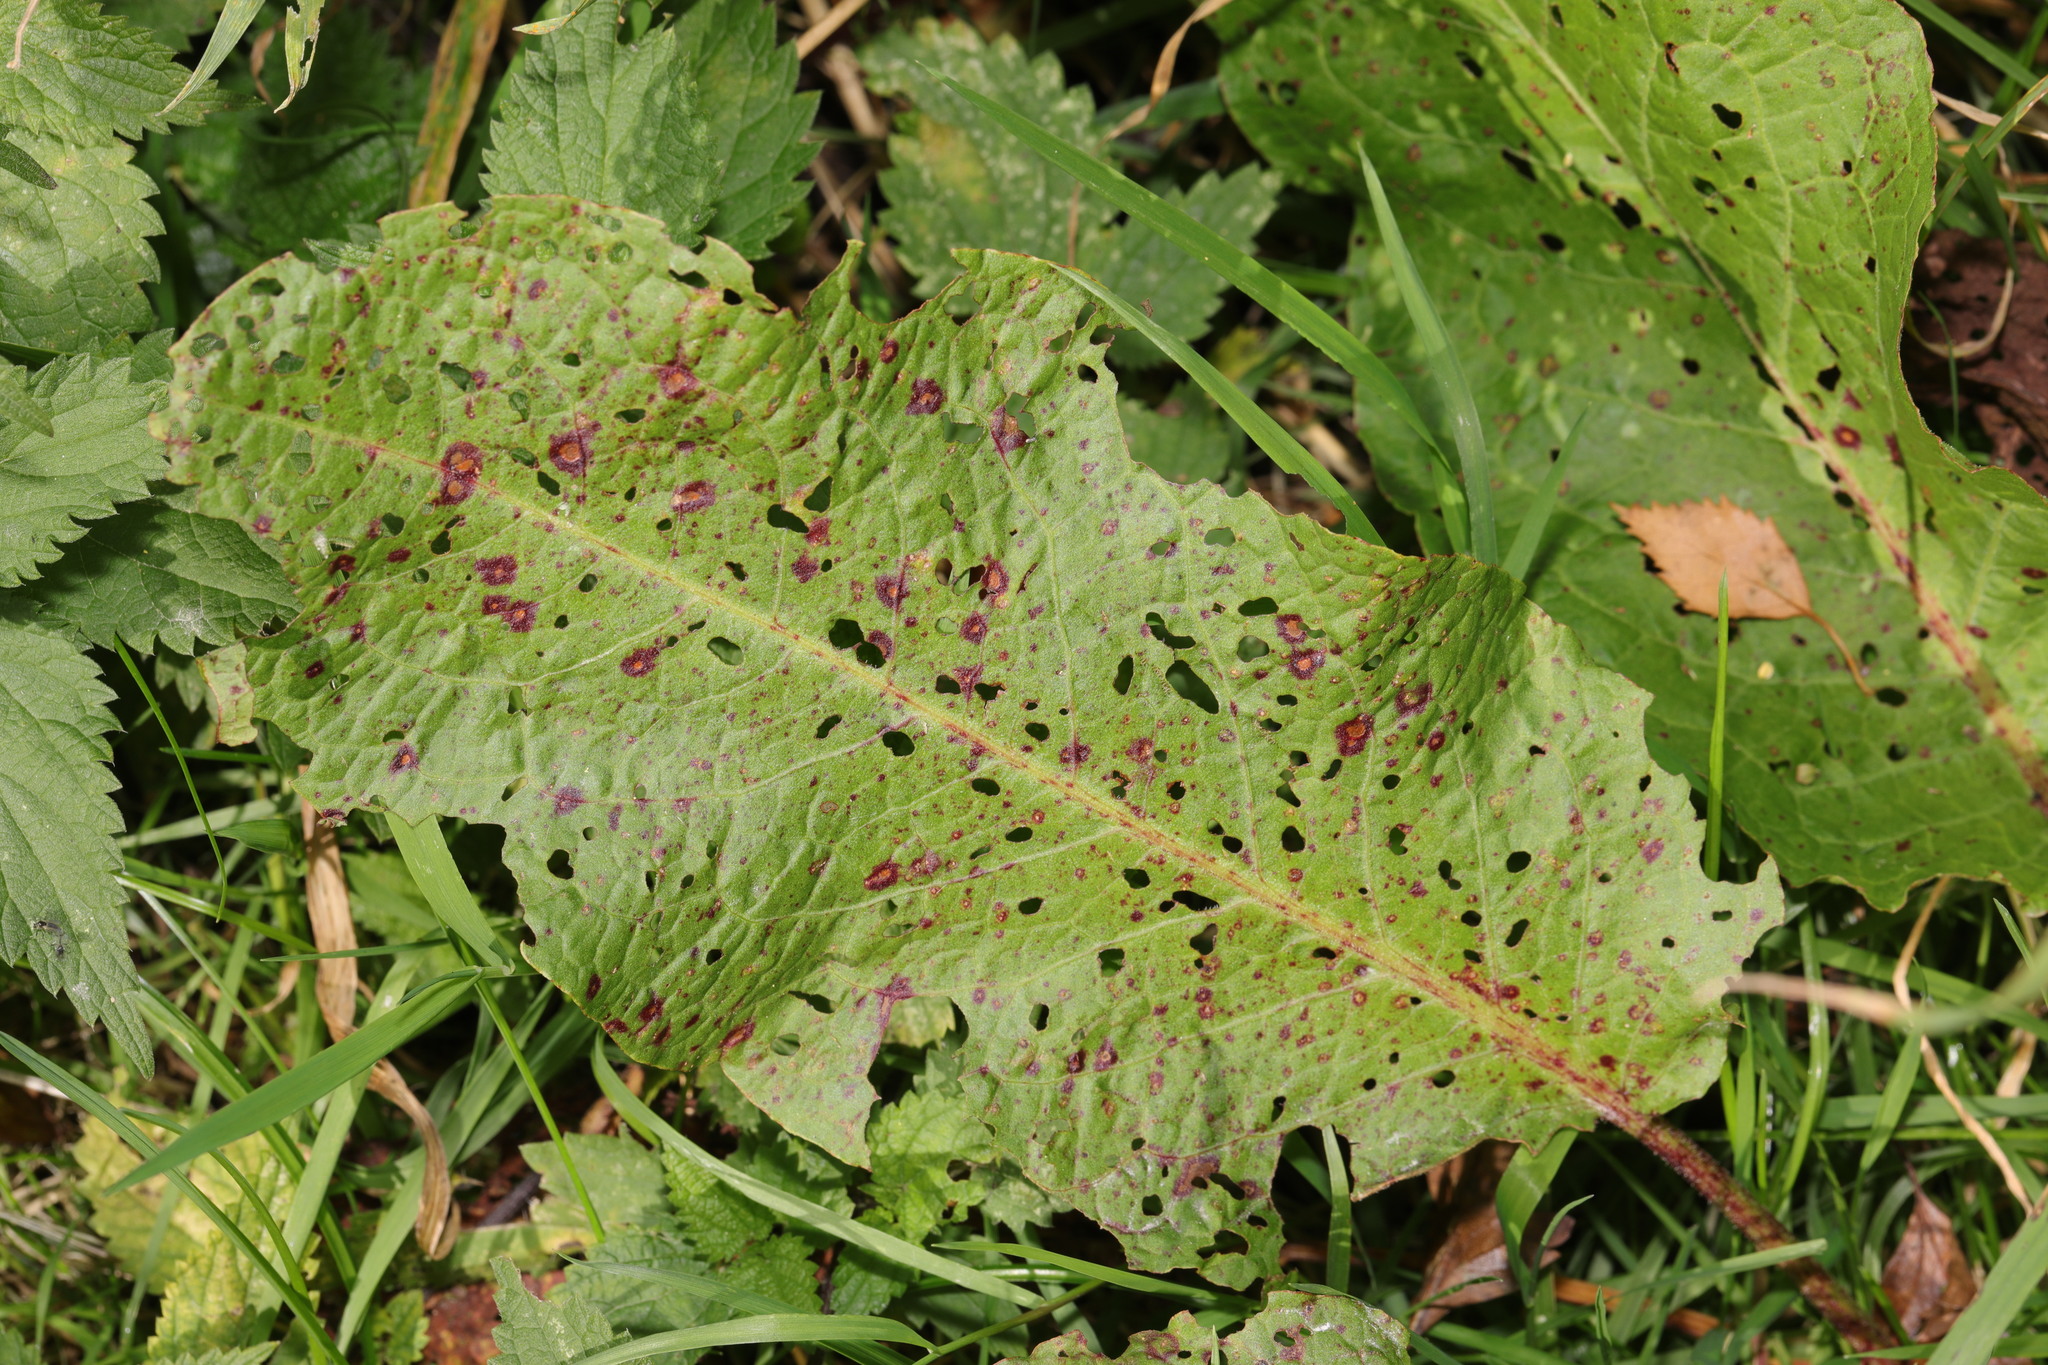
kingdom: Plantae
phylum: Tracheophyta
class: Magnoliopsida
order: Caryophyllales
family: Polygonaceae
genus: Rumex
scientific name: Rumex obtusifolius
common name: Bitter dock
